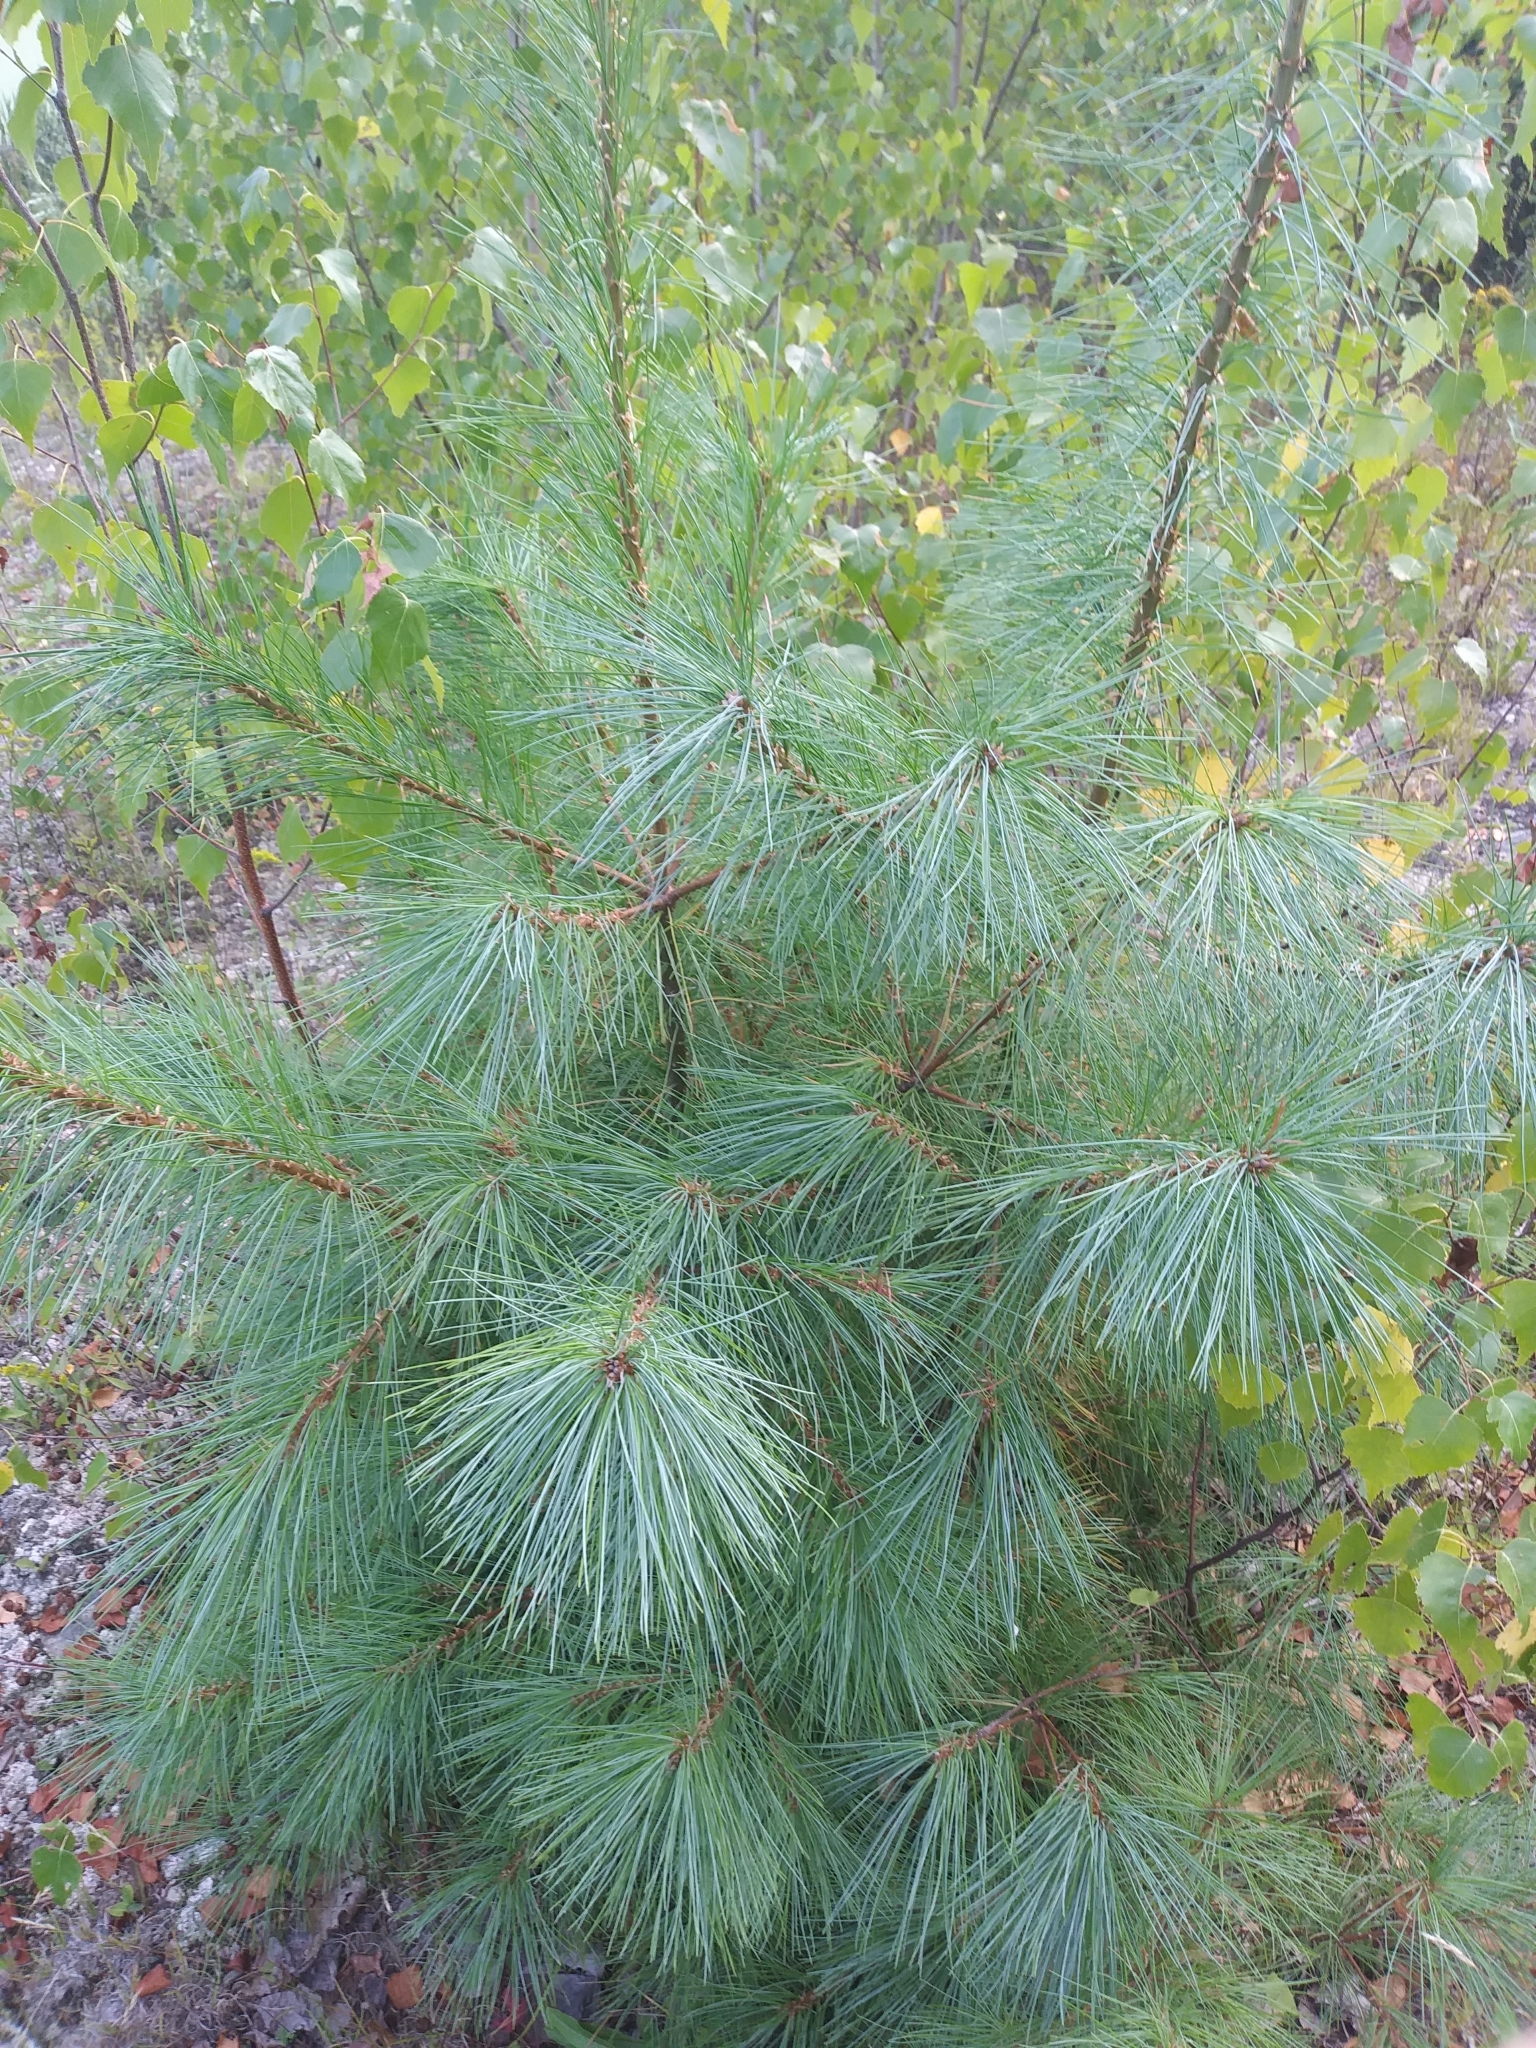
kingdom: Plantae
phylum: Tracheophyta
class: Pinopsida
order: Pinales
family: Pinaceae
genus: Pinus
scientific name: Pinus strobus
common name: Weymouth pine
